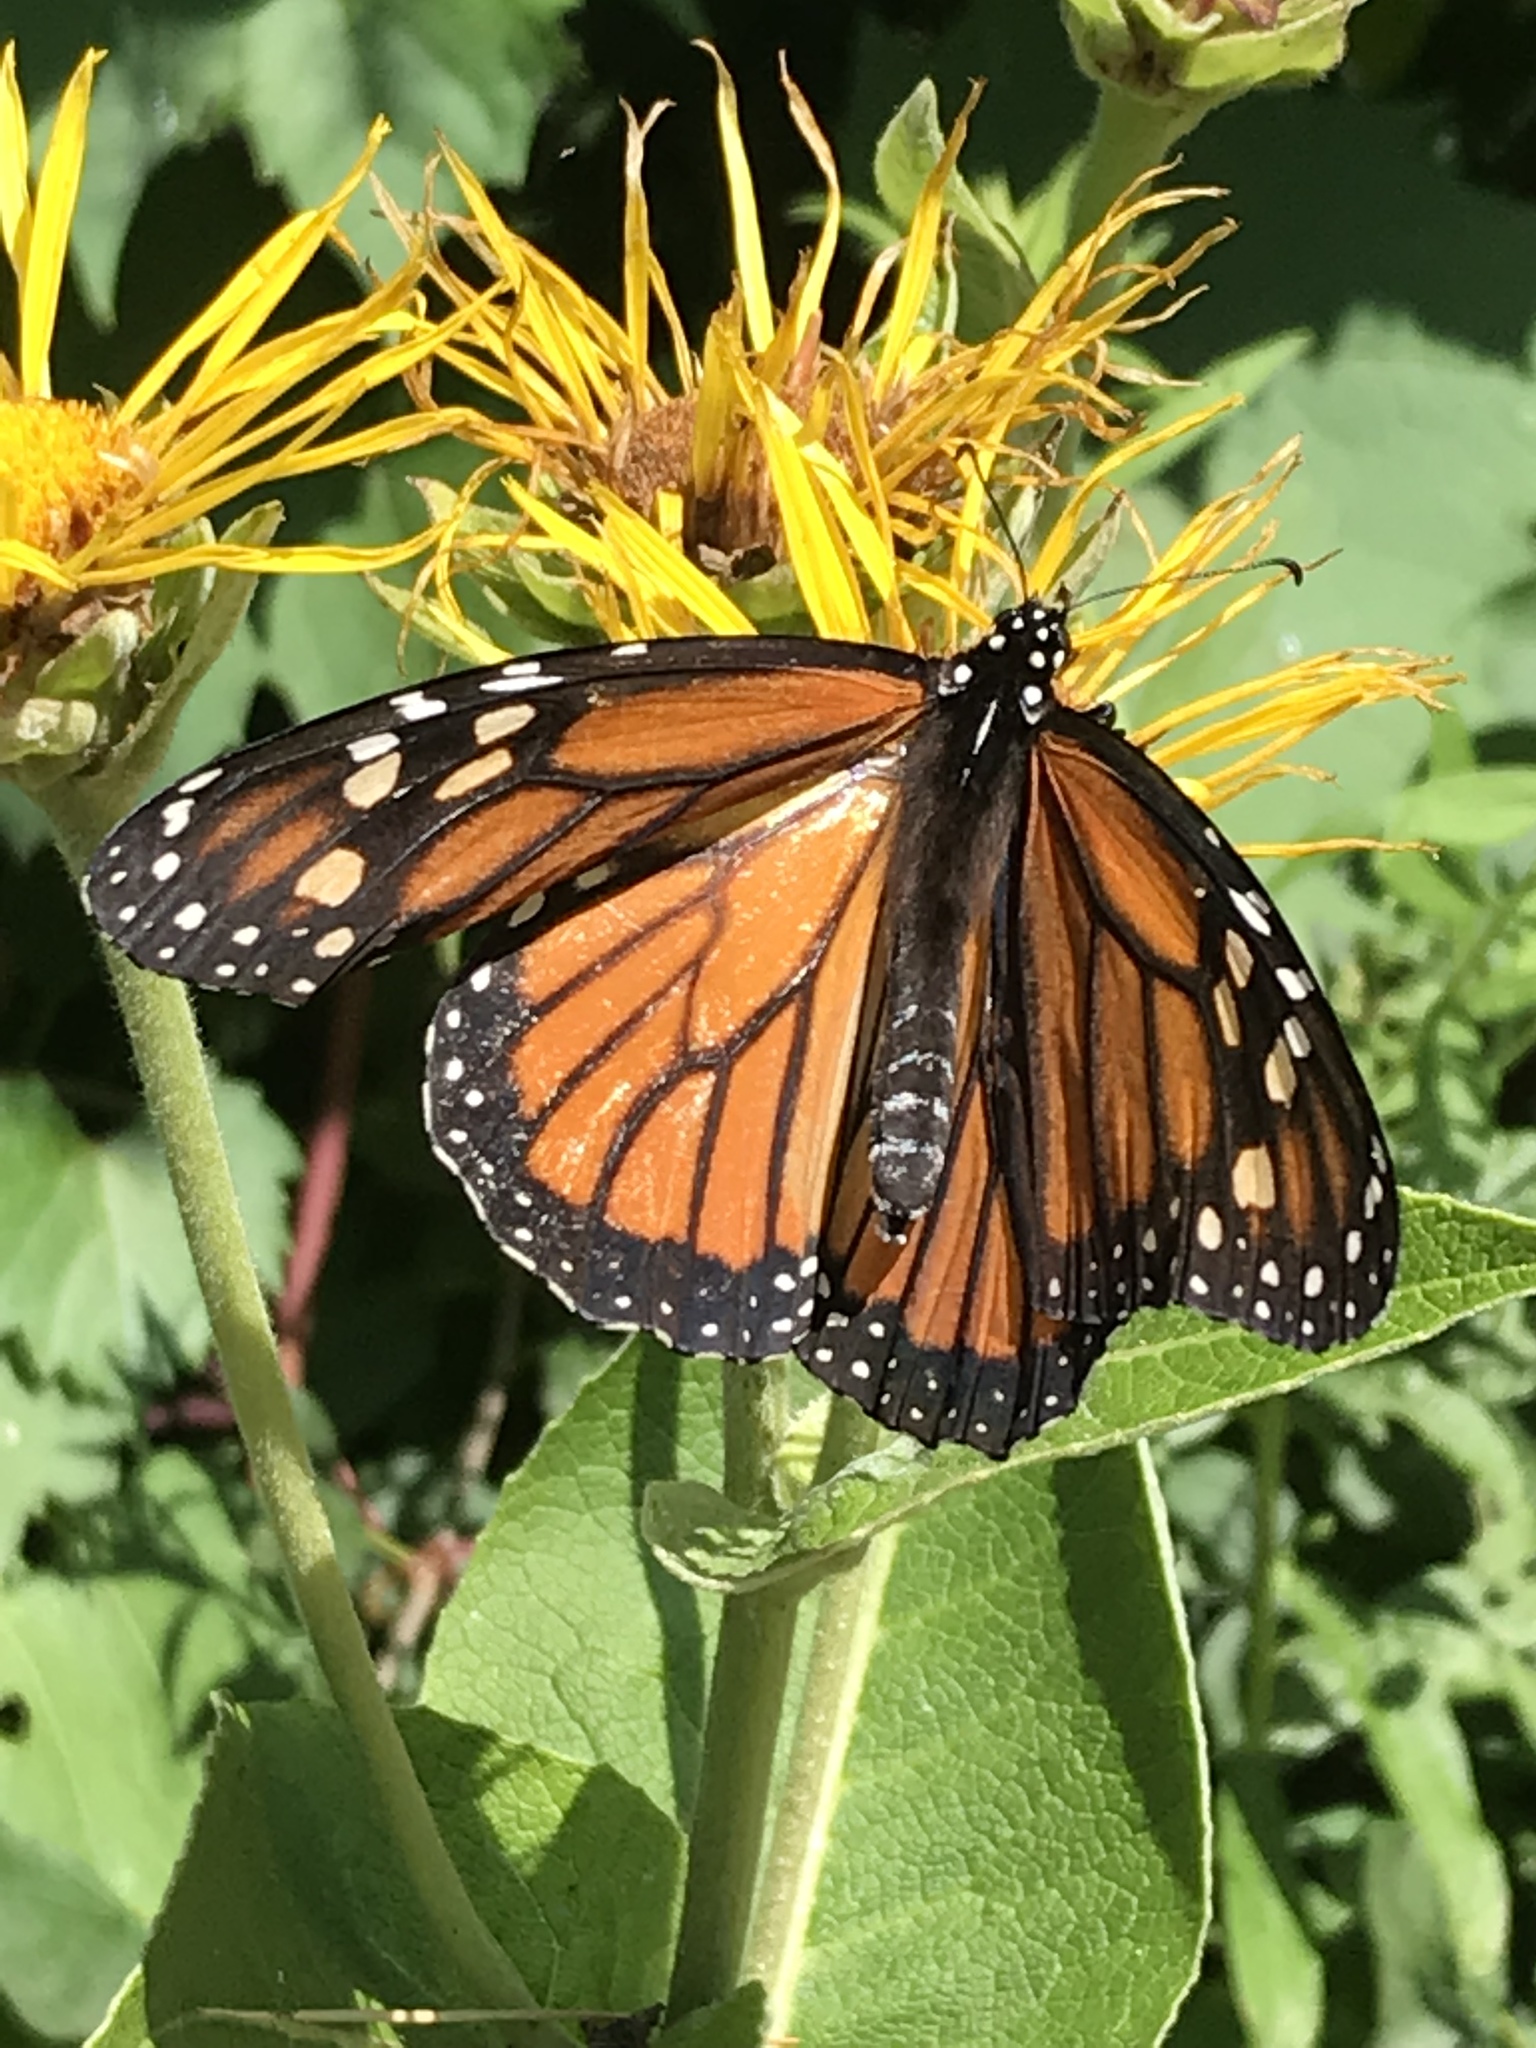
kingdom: Animalia
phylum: Arthropoda
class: Insecta
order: Lepidoptera
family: Nymphalidae
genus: Danaus
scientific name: Danaus plexippus
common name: Monarch
